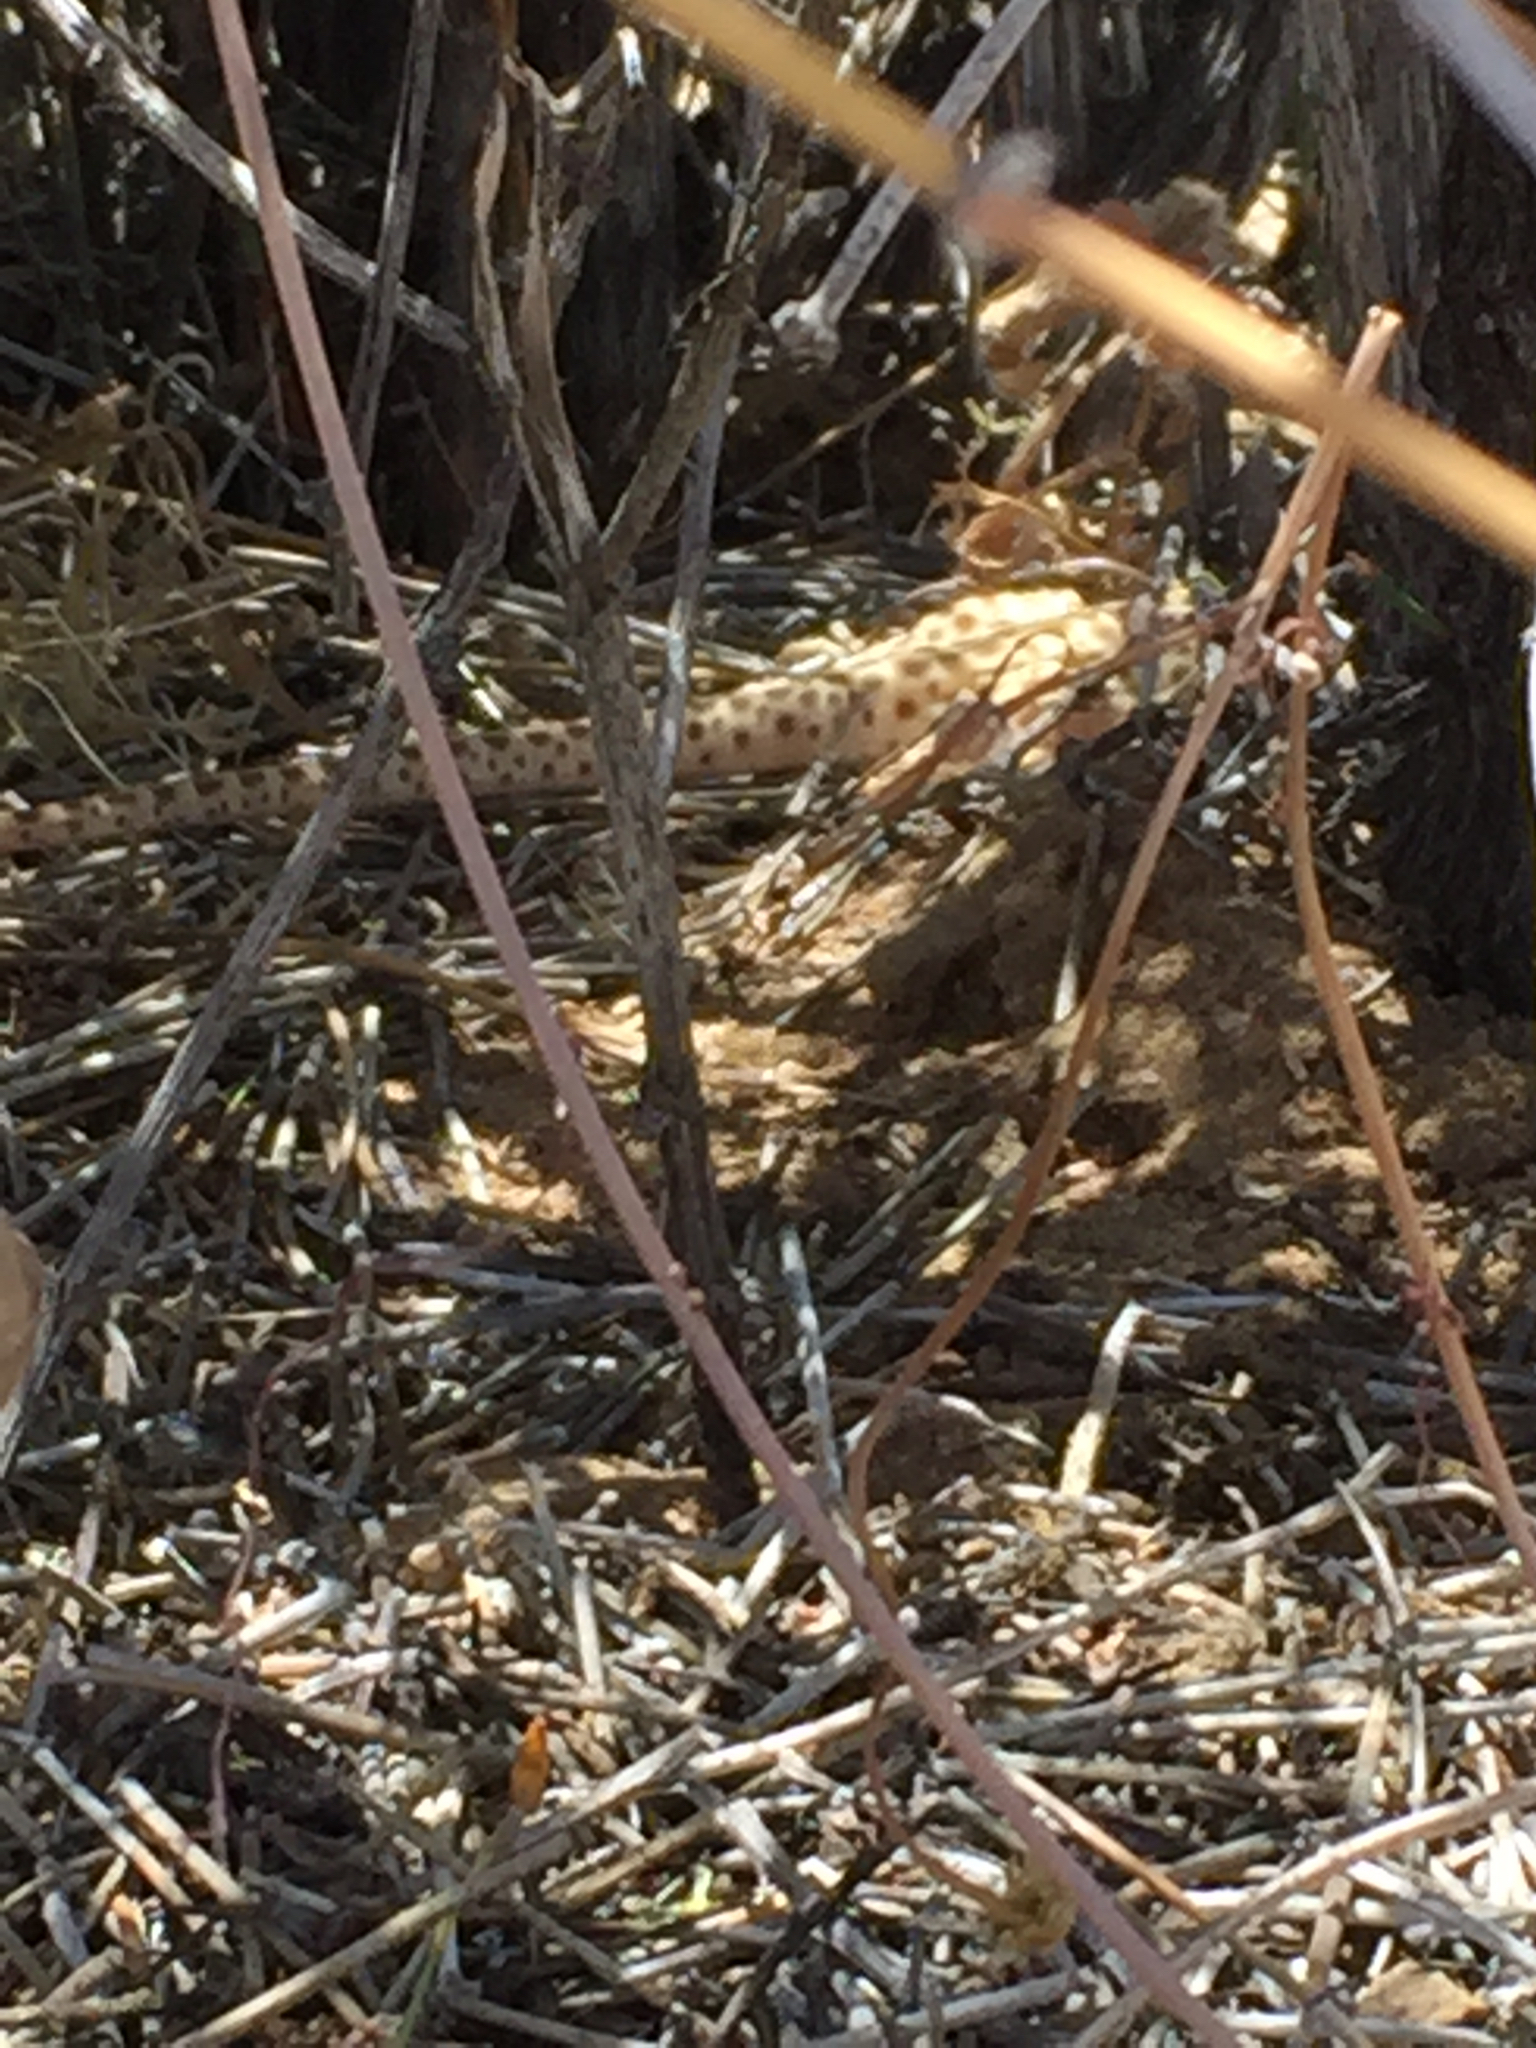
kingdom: Animalia
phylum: Chordata
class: Squamata
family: Crotaphytidae
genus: Gambelia
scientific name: Gambelia wislizenii
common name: Longnose leopard lizard
